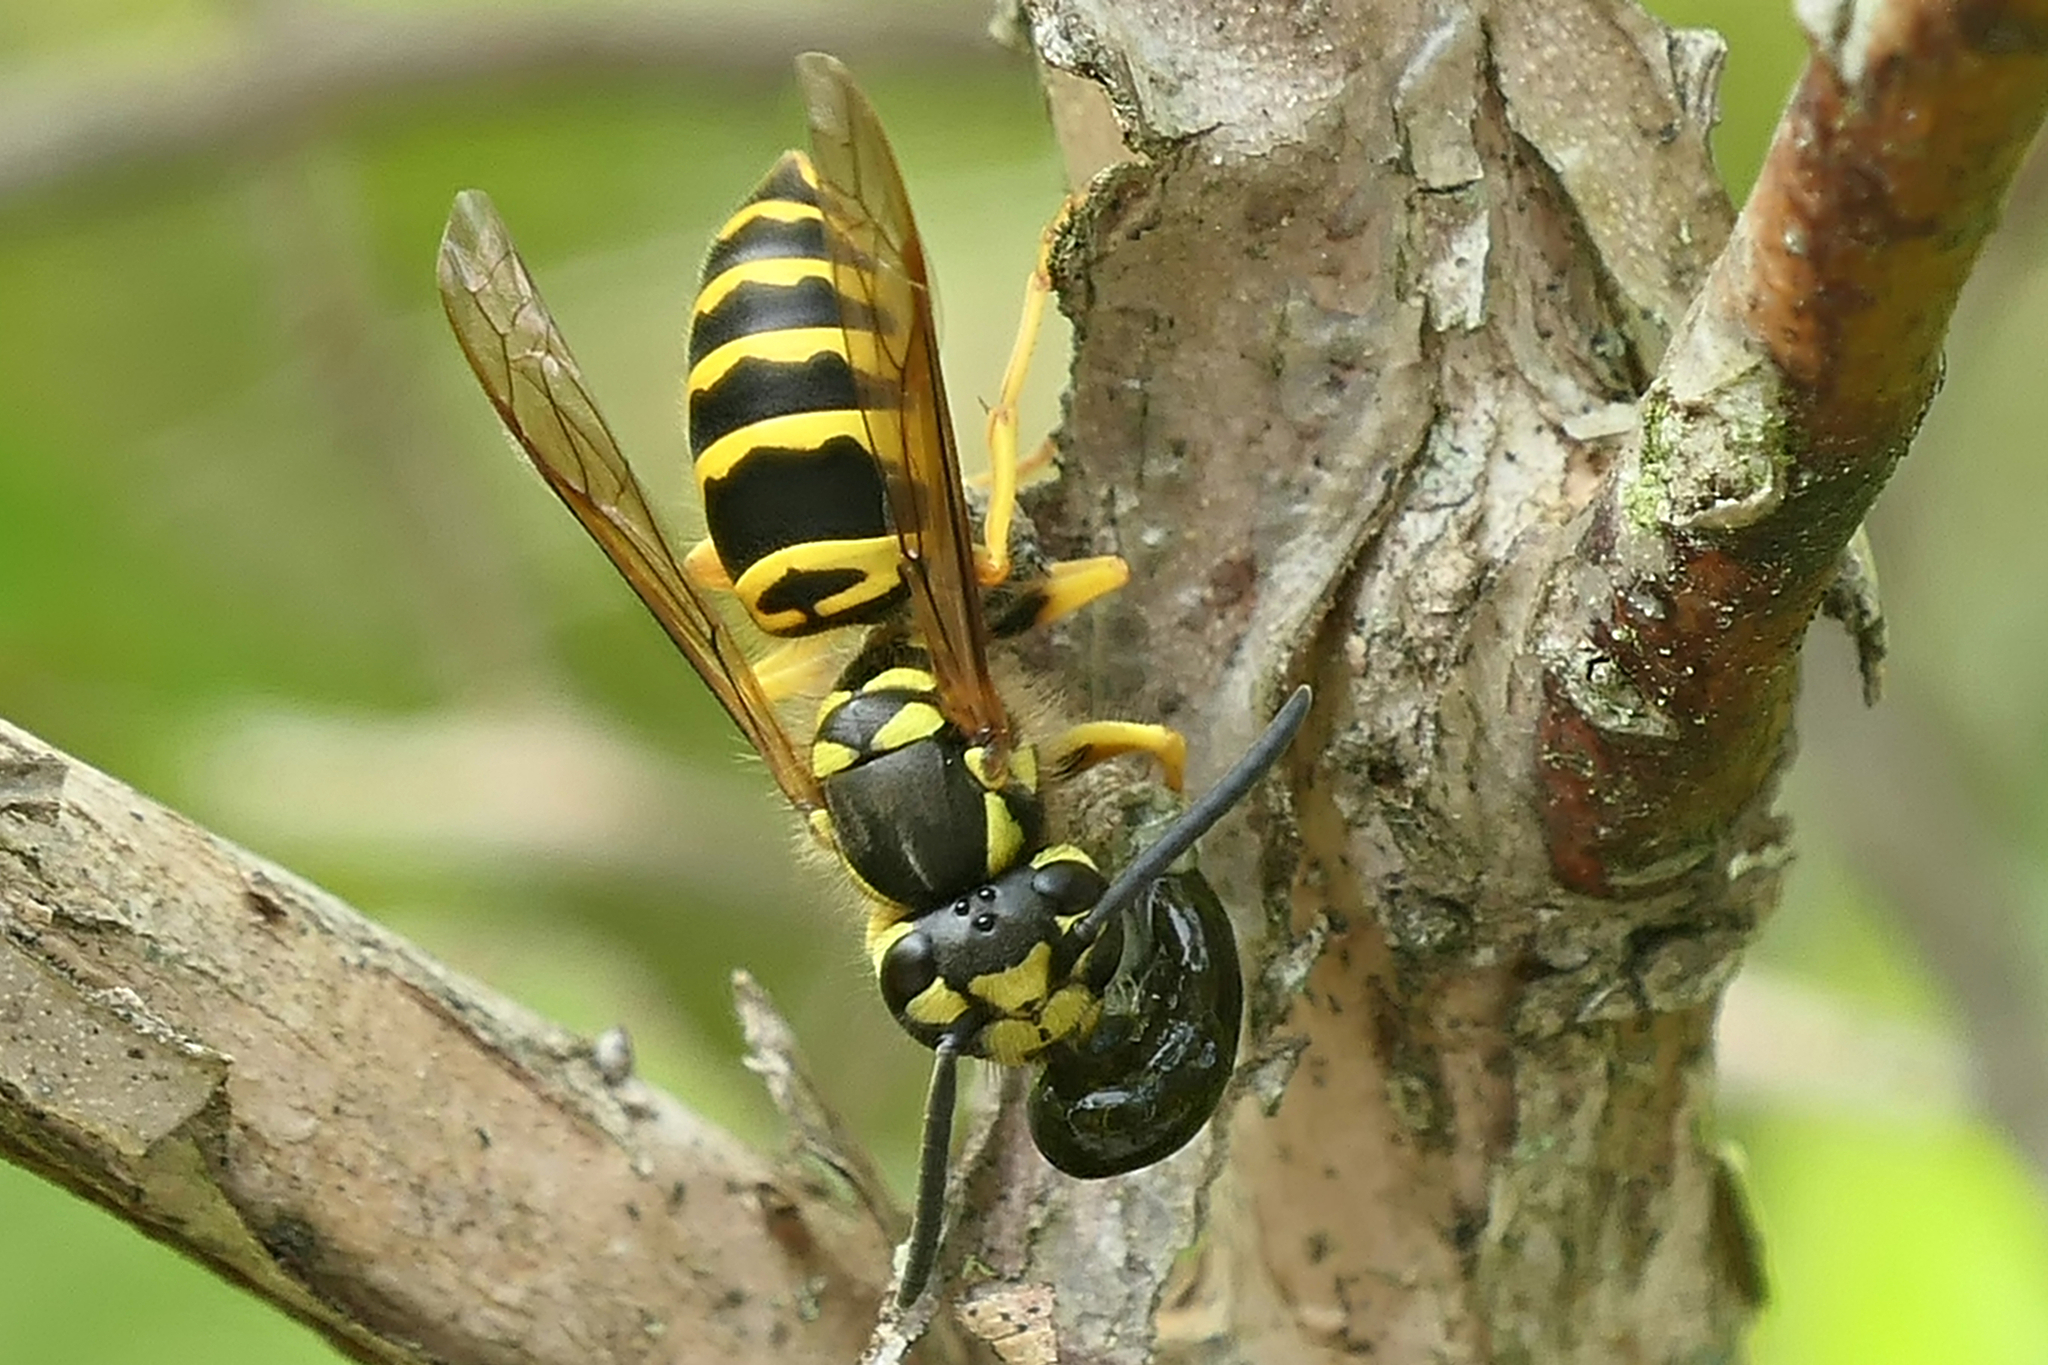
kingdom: Animalia
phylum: Arthropoda
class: Insecta
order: Hymenoptera
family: Vespidae
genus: Vespula
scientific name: Vespula maculifrons
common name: Eastern yellowjacket
